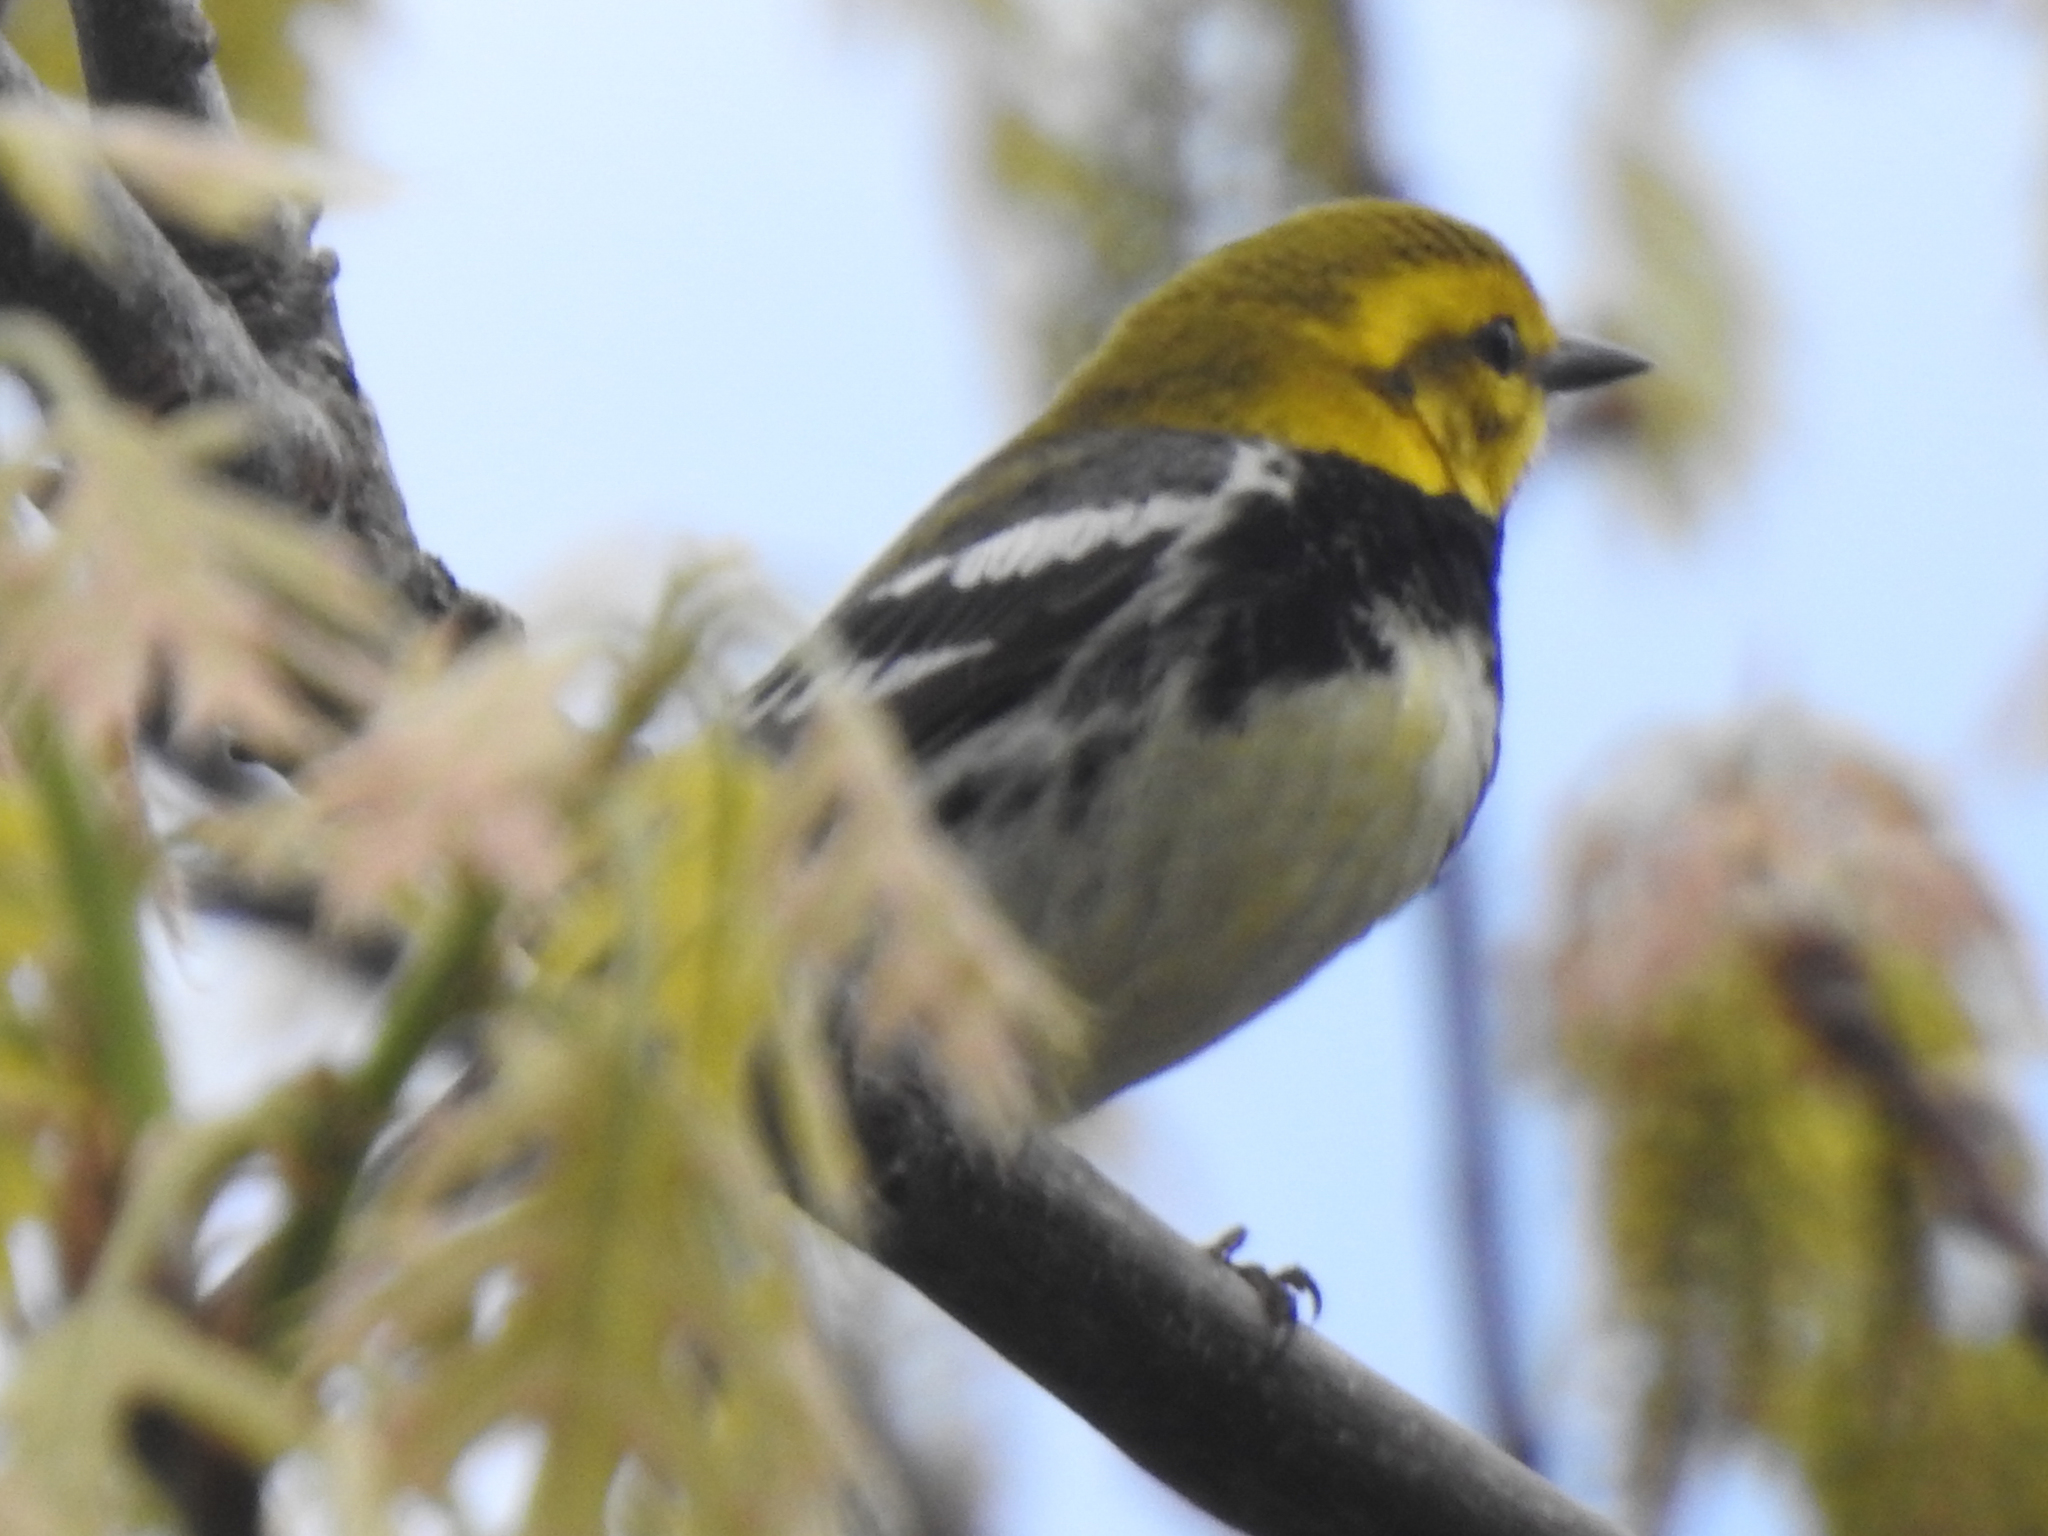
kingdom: Animalia
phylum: Chordata
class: Aves
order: Passeriformes
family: Parulidae
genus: Setophaga
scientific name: Setophaga virens
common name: Black-throated green warbler
